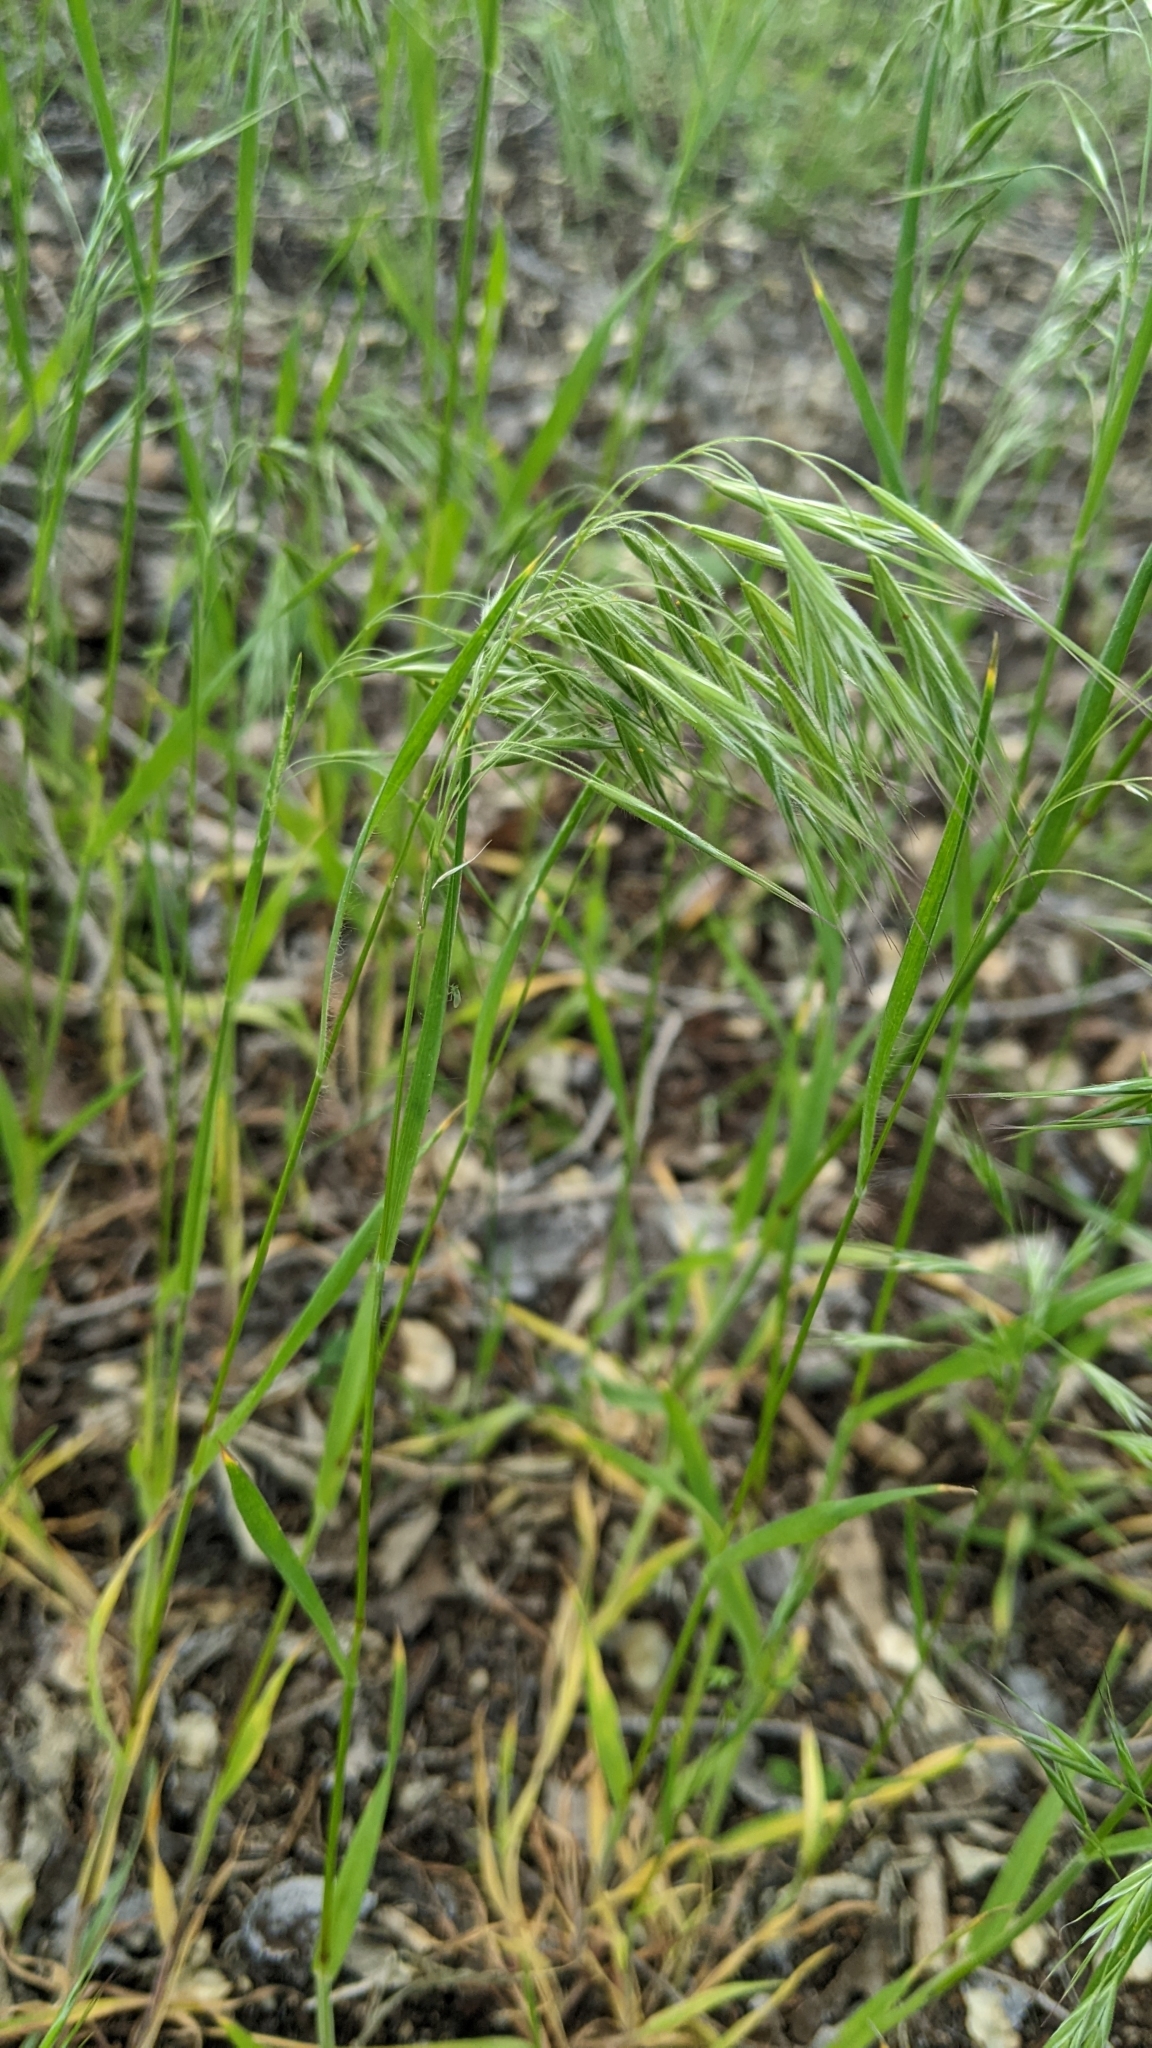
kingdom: Plantae
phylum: Tracheophyta
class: Liliopsida
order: Poales
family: Poaceae
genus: Bromus
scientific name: Bromus tectorum
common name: Cheatgrass
